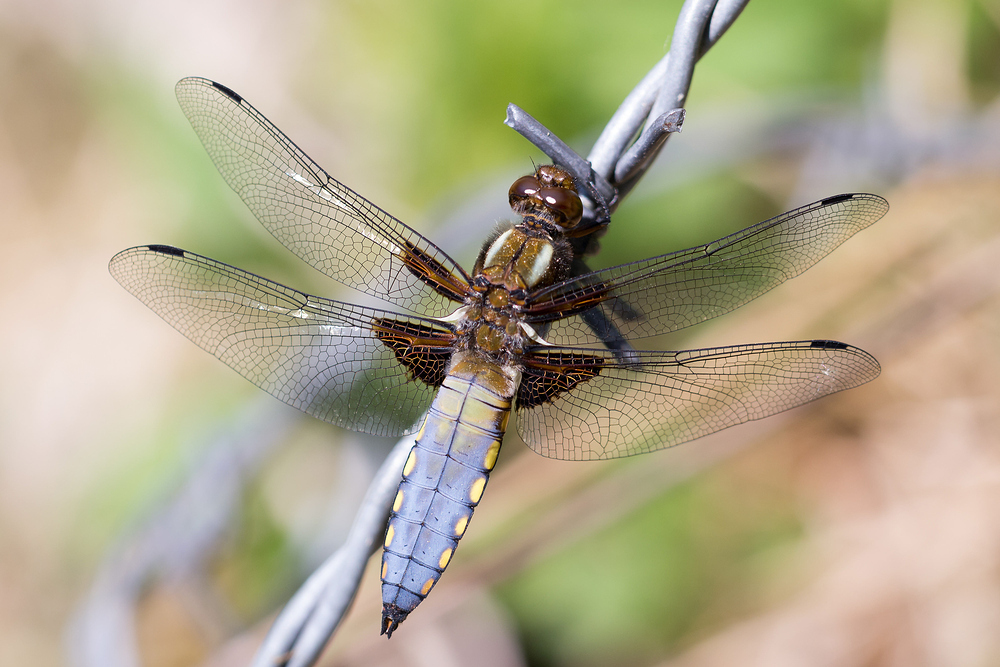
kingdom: Animalia
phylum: Arthropoda
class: Insecta
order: Odonata
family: Libellulidae
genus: Libellula
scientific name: Libellula depressa
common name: Broad-bodied chaser
